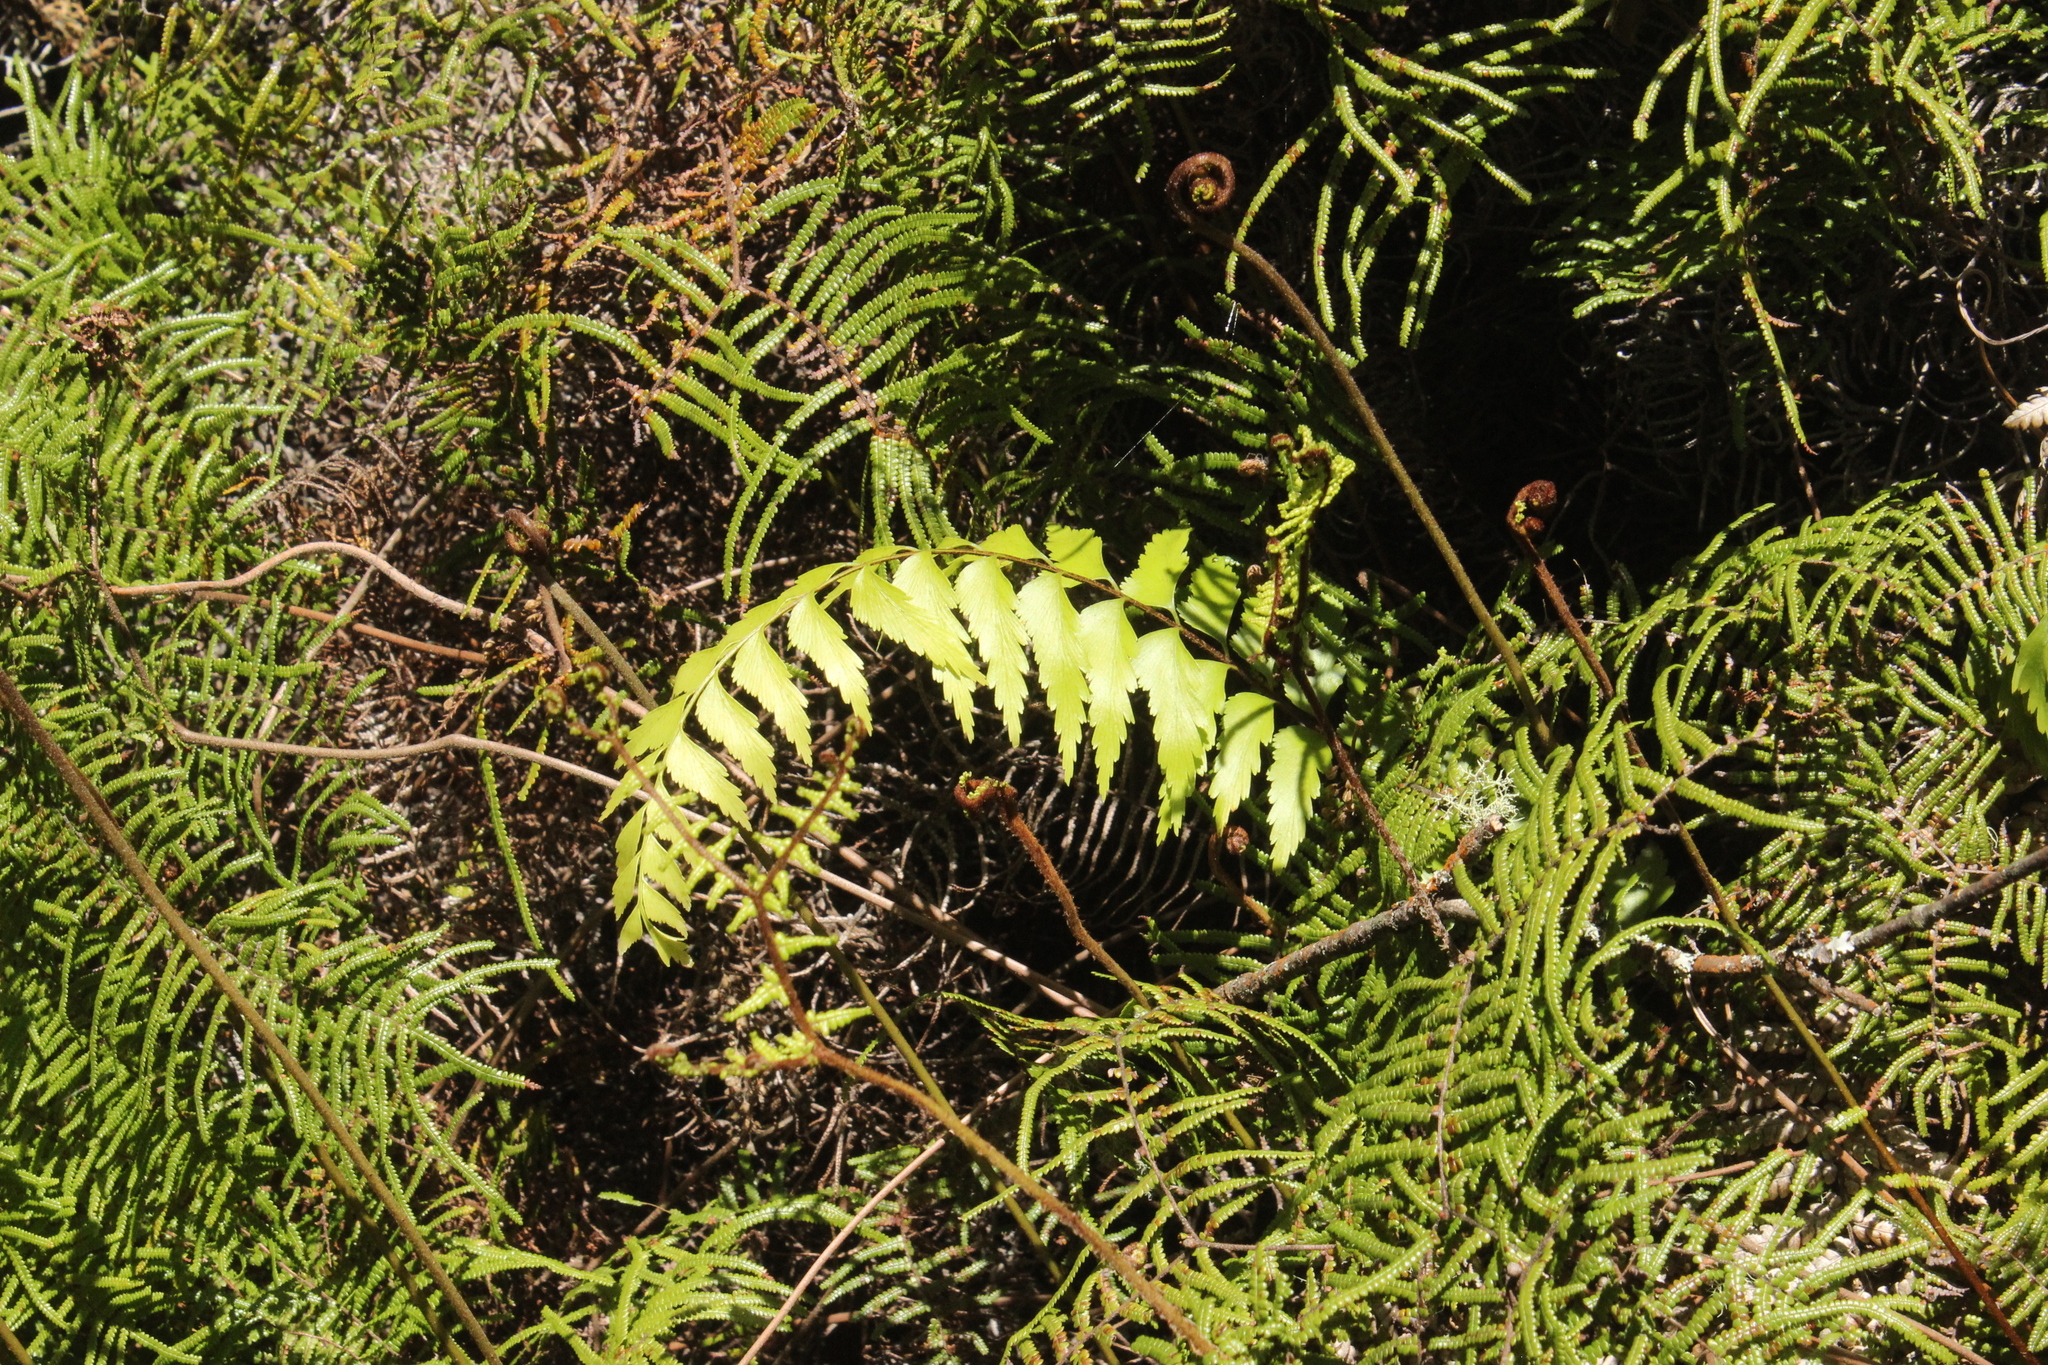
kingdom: Plantae
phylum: Tracheophyta
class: Polypodiopsida
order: Polypodiales
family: Aspleniaceae
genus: Asplenium
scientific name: Asplenium polyodon
